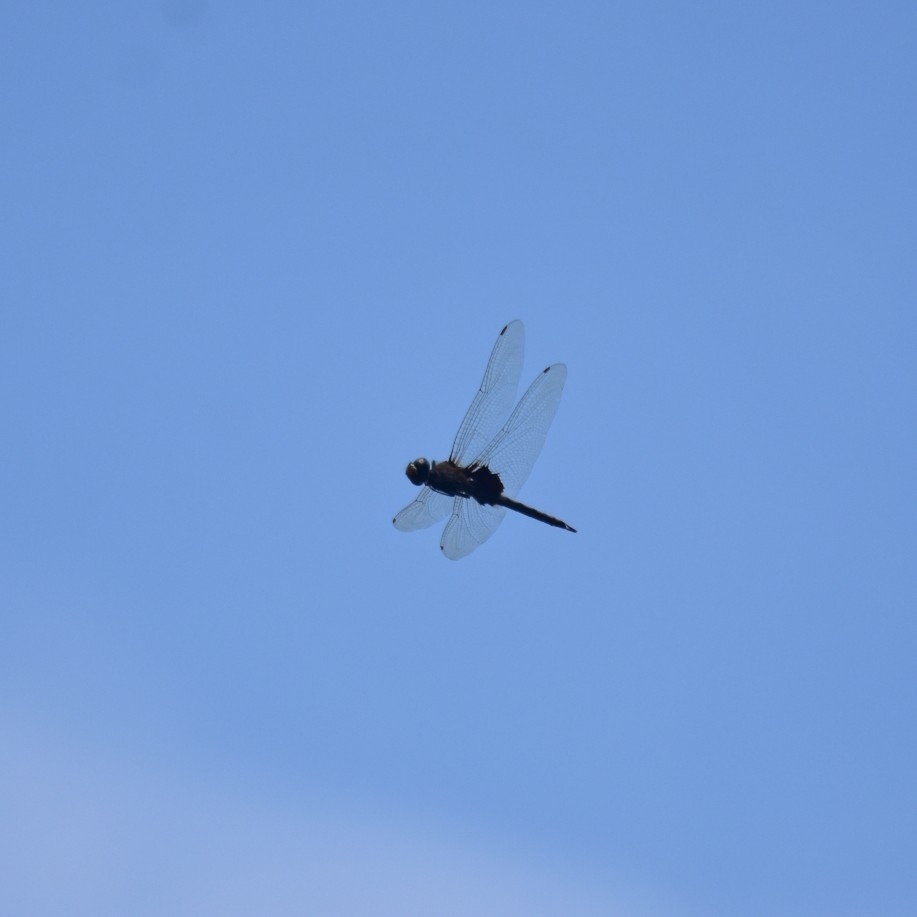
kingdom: Animalia
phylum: Arthropoda
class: Insecta
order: Odonata
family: Libellulidae
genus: Tramea
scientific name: Tramea limbata
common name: Ferruginous glider
